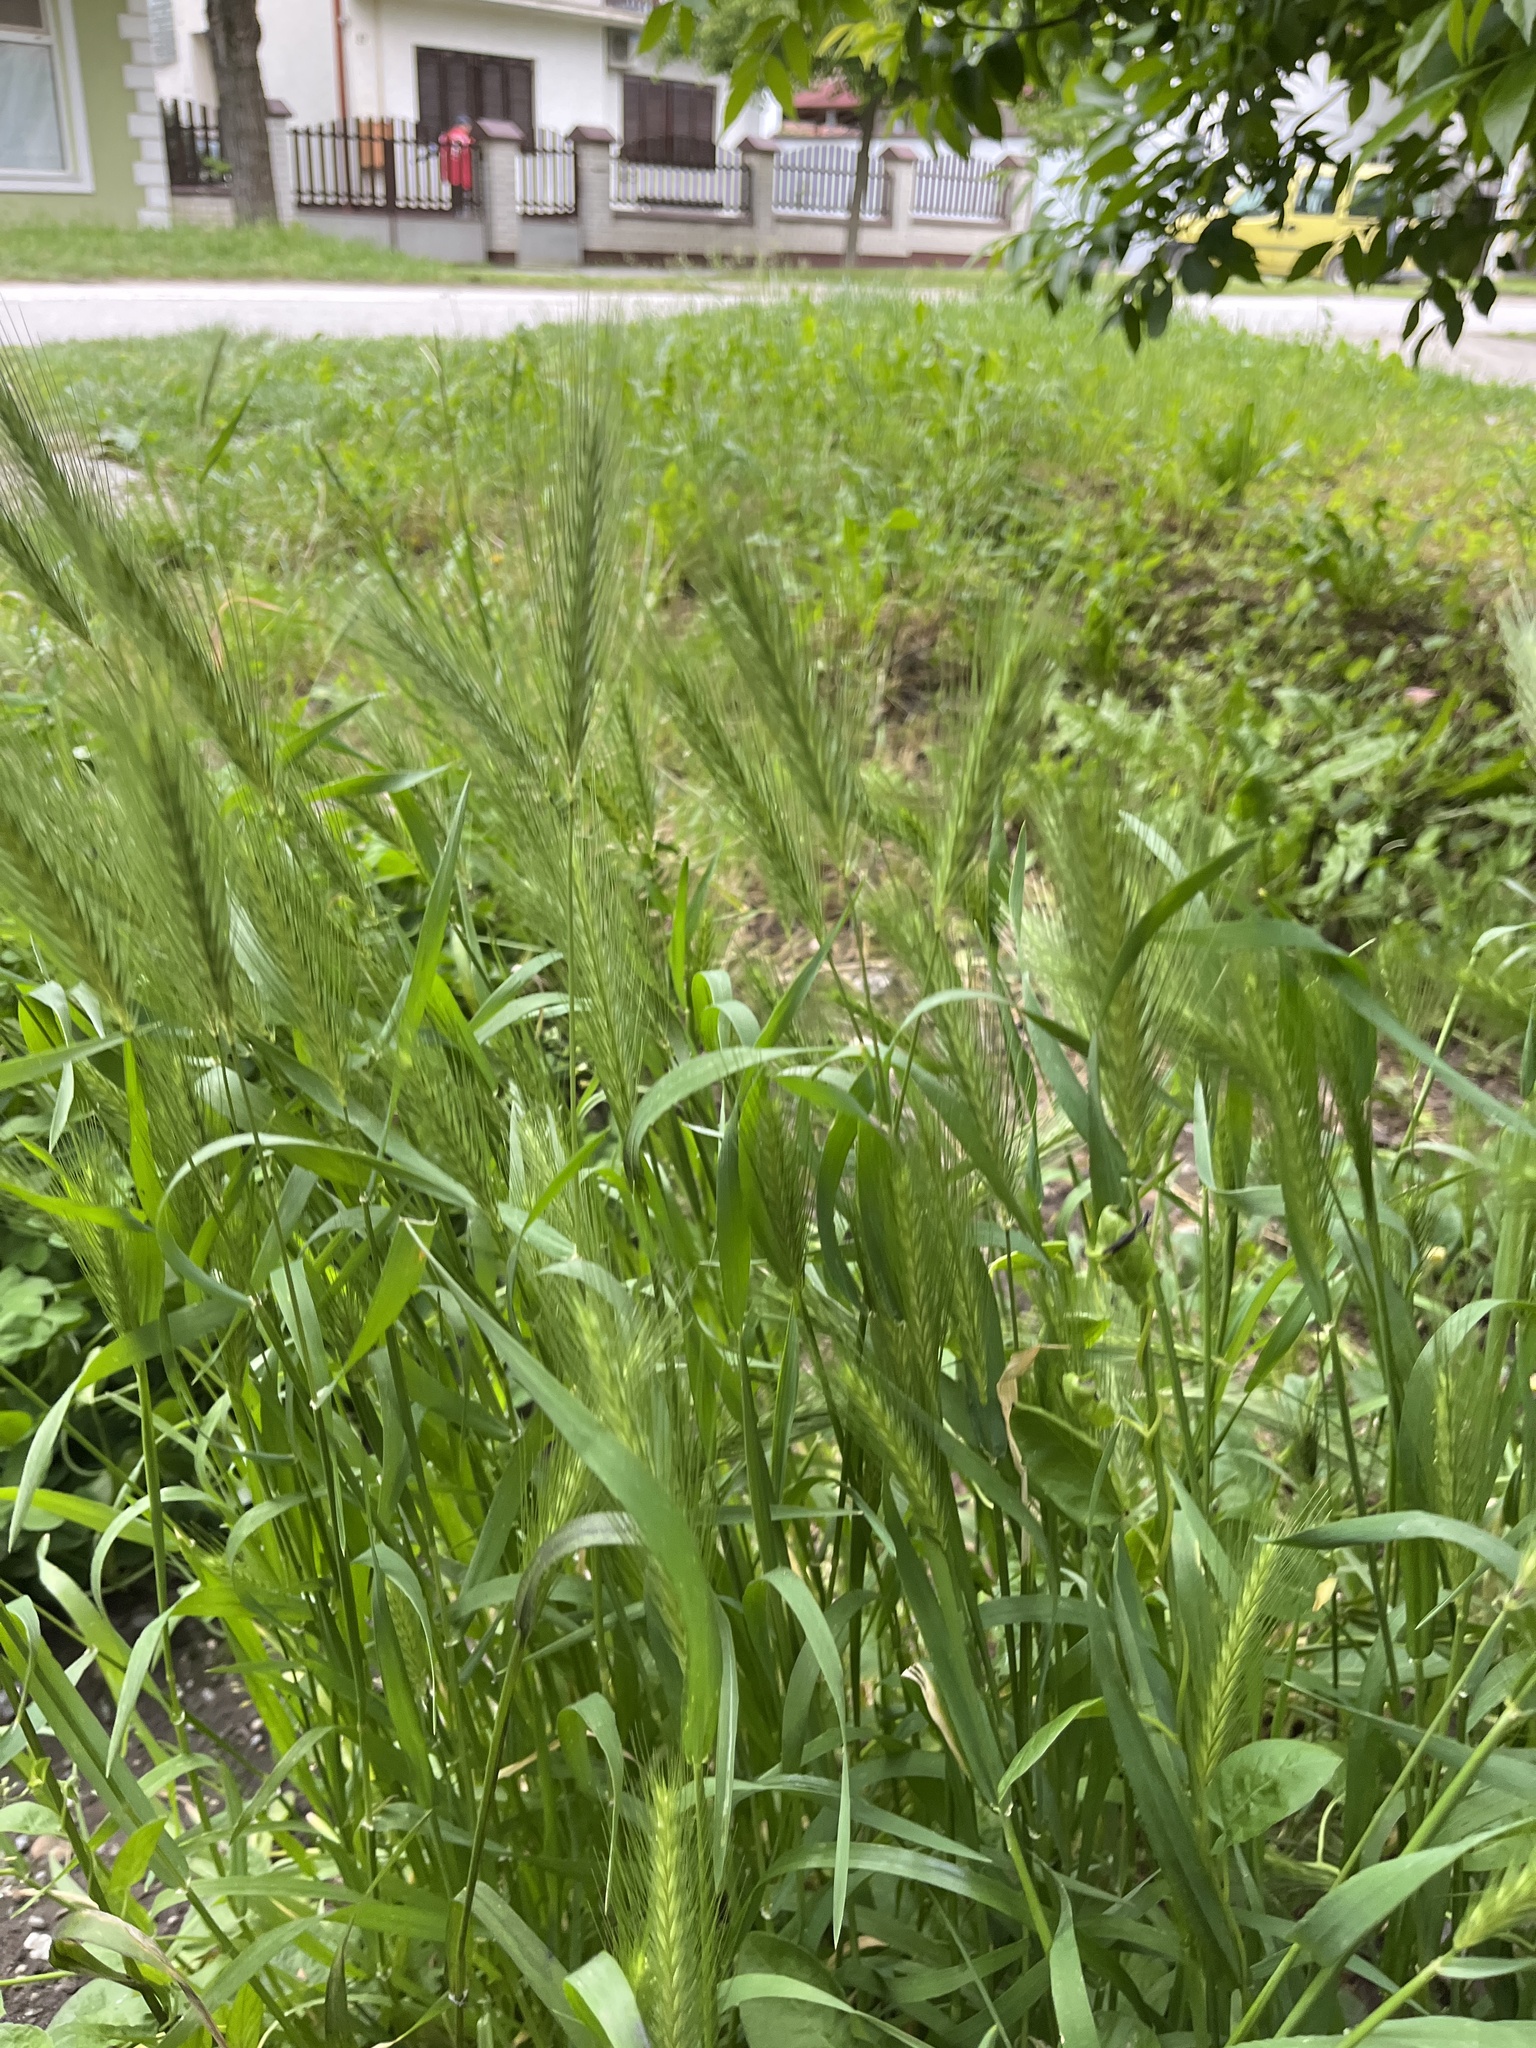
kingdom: Plantae
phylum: Tracheophyta
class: Liliopsida
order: Poales
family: Poaceae
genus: Hordeum
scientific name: Hordeum murinum
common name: Wall barley
